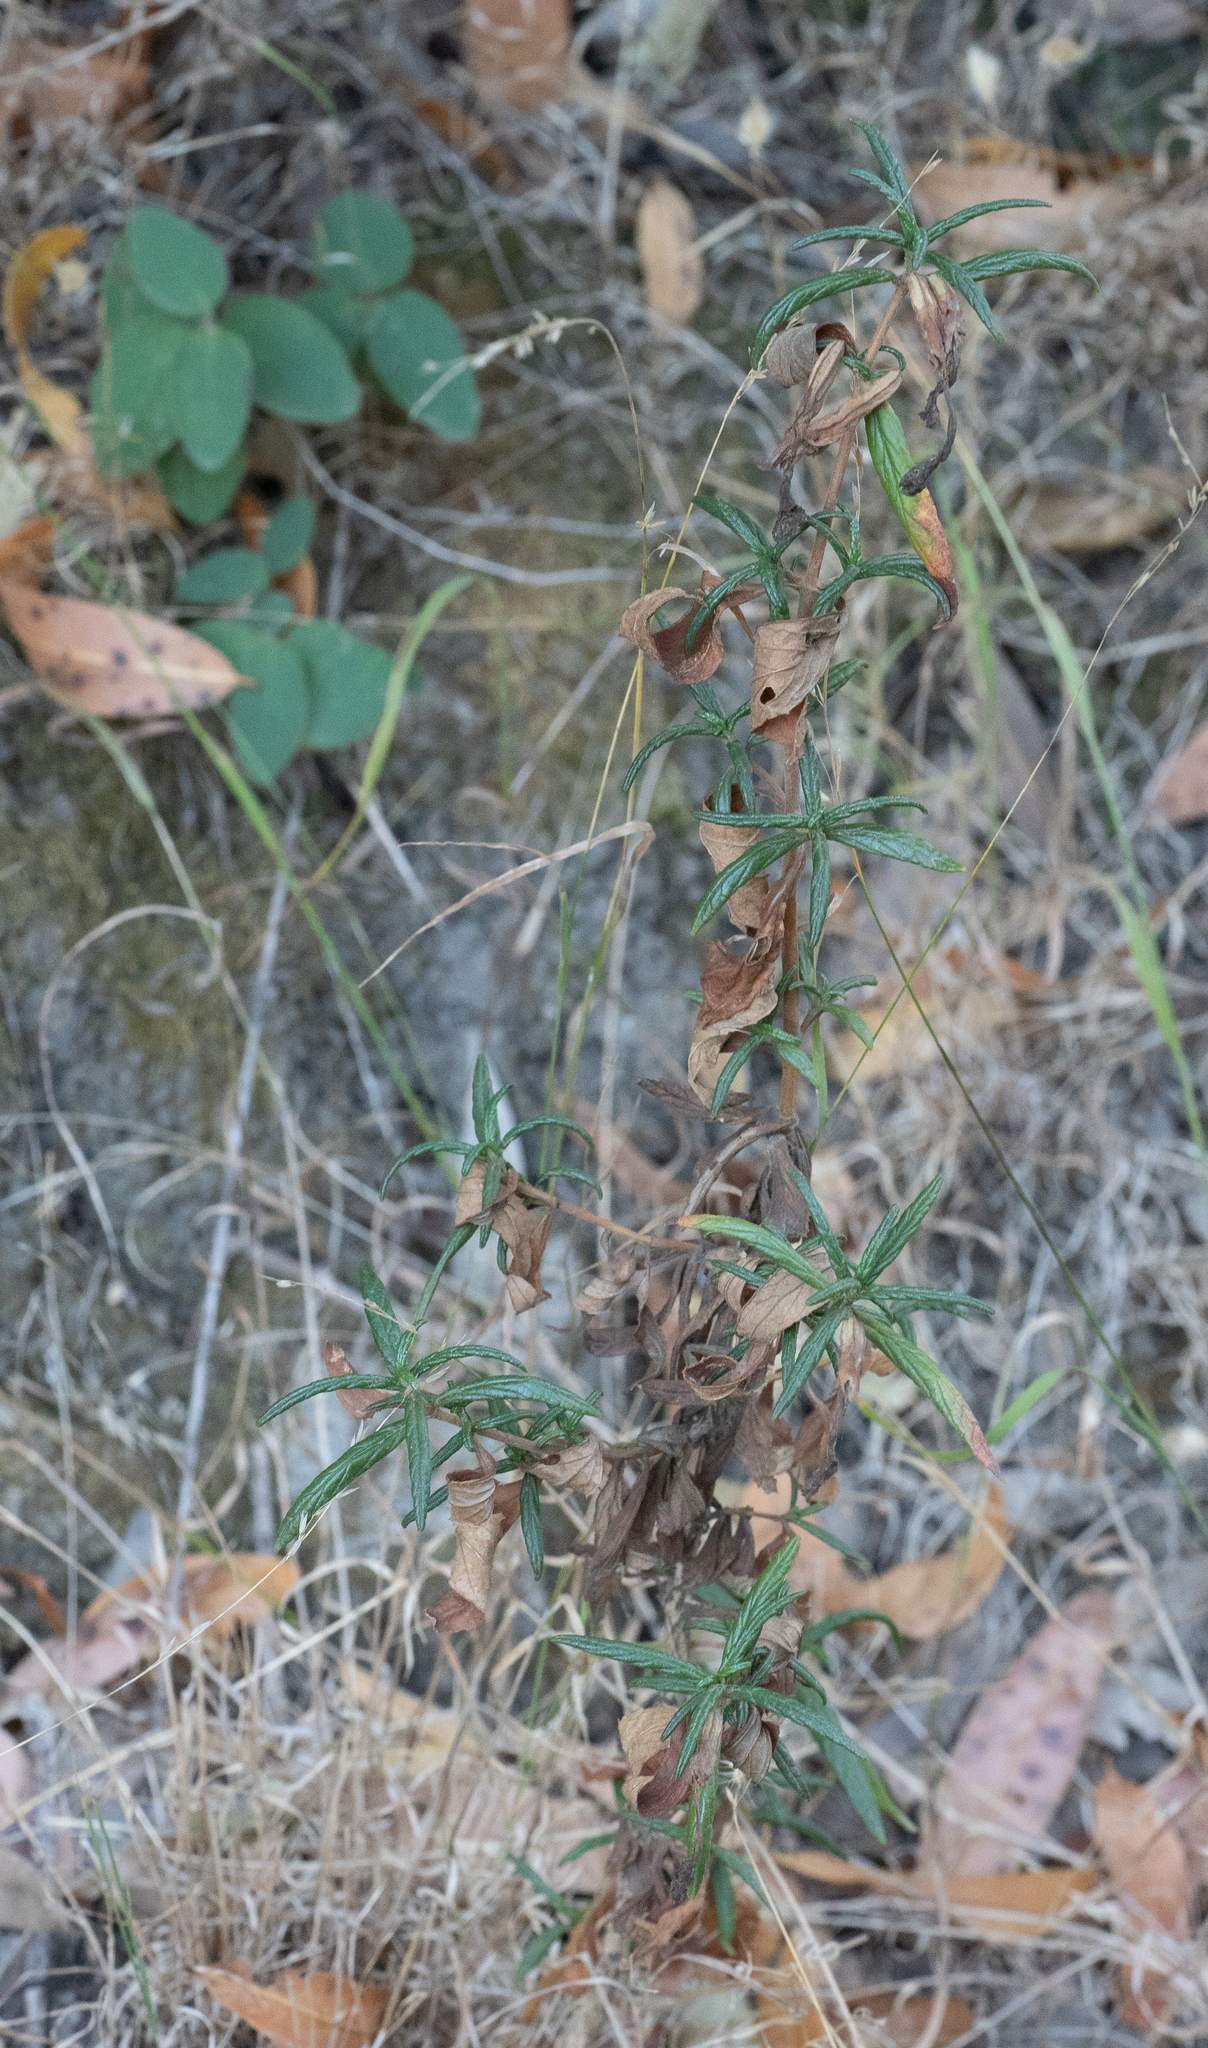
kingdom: Plantae
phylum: Tracheophyta
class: Magnoliopsida
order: Lamiales
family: Phrymaceae
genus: Diplacus
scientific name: Diplacus aurantiacus
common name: Bush monkey-flower
